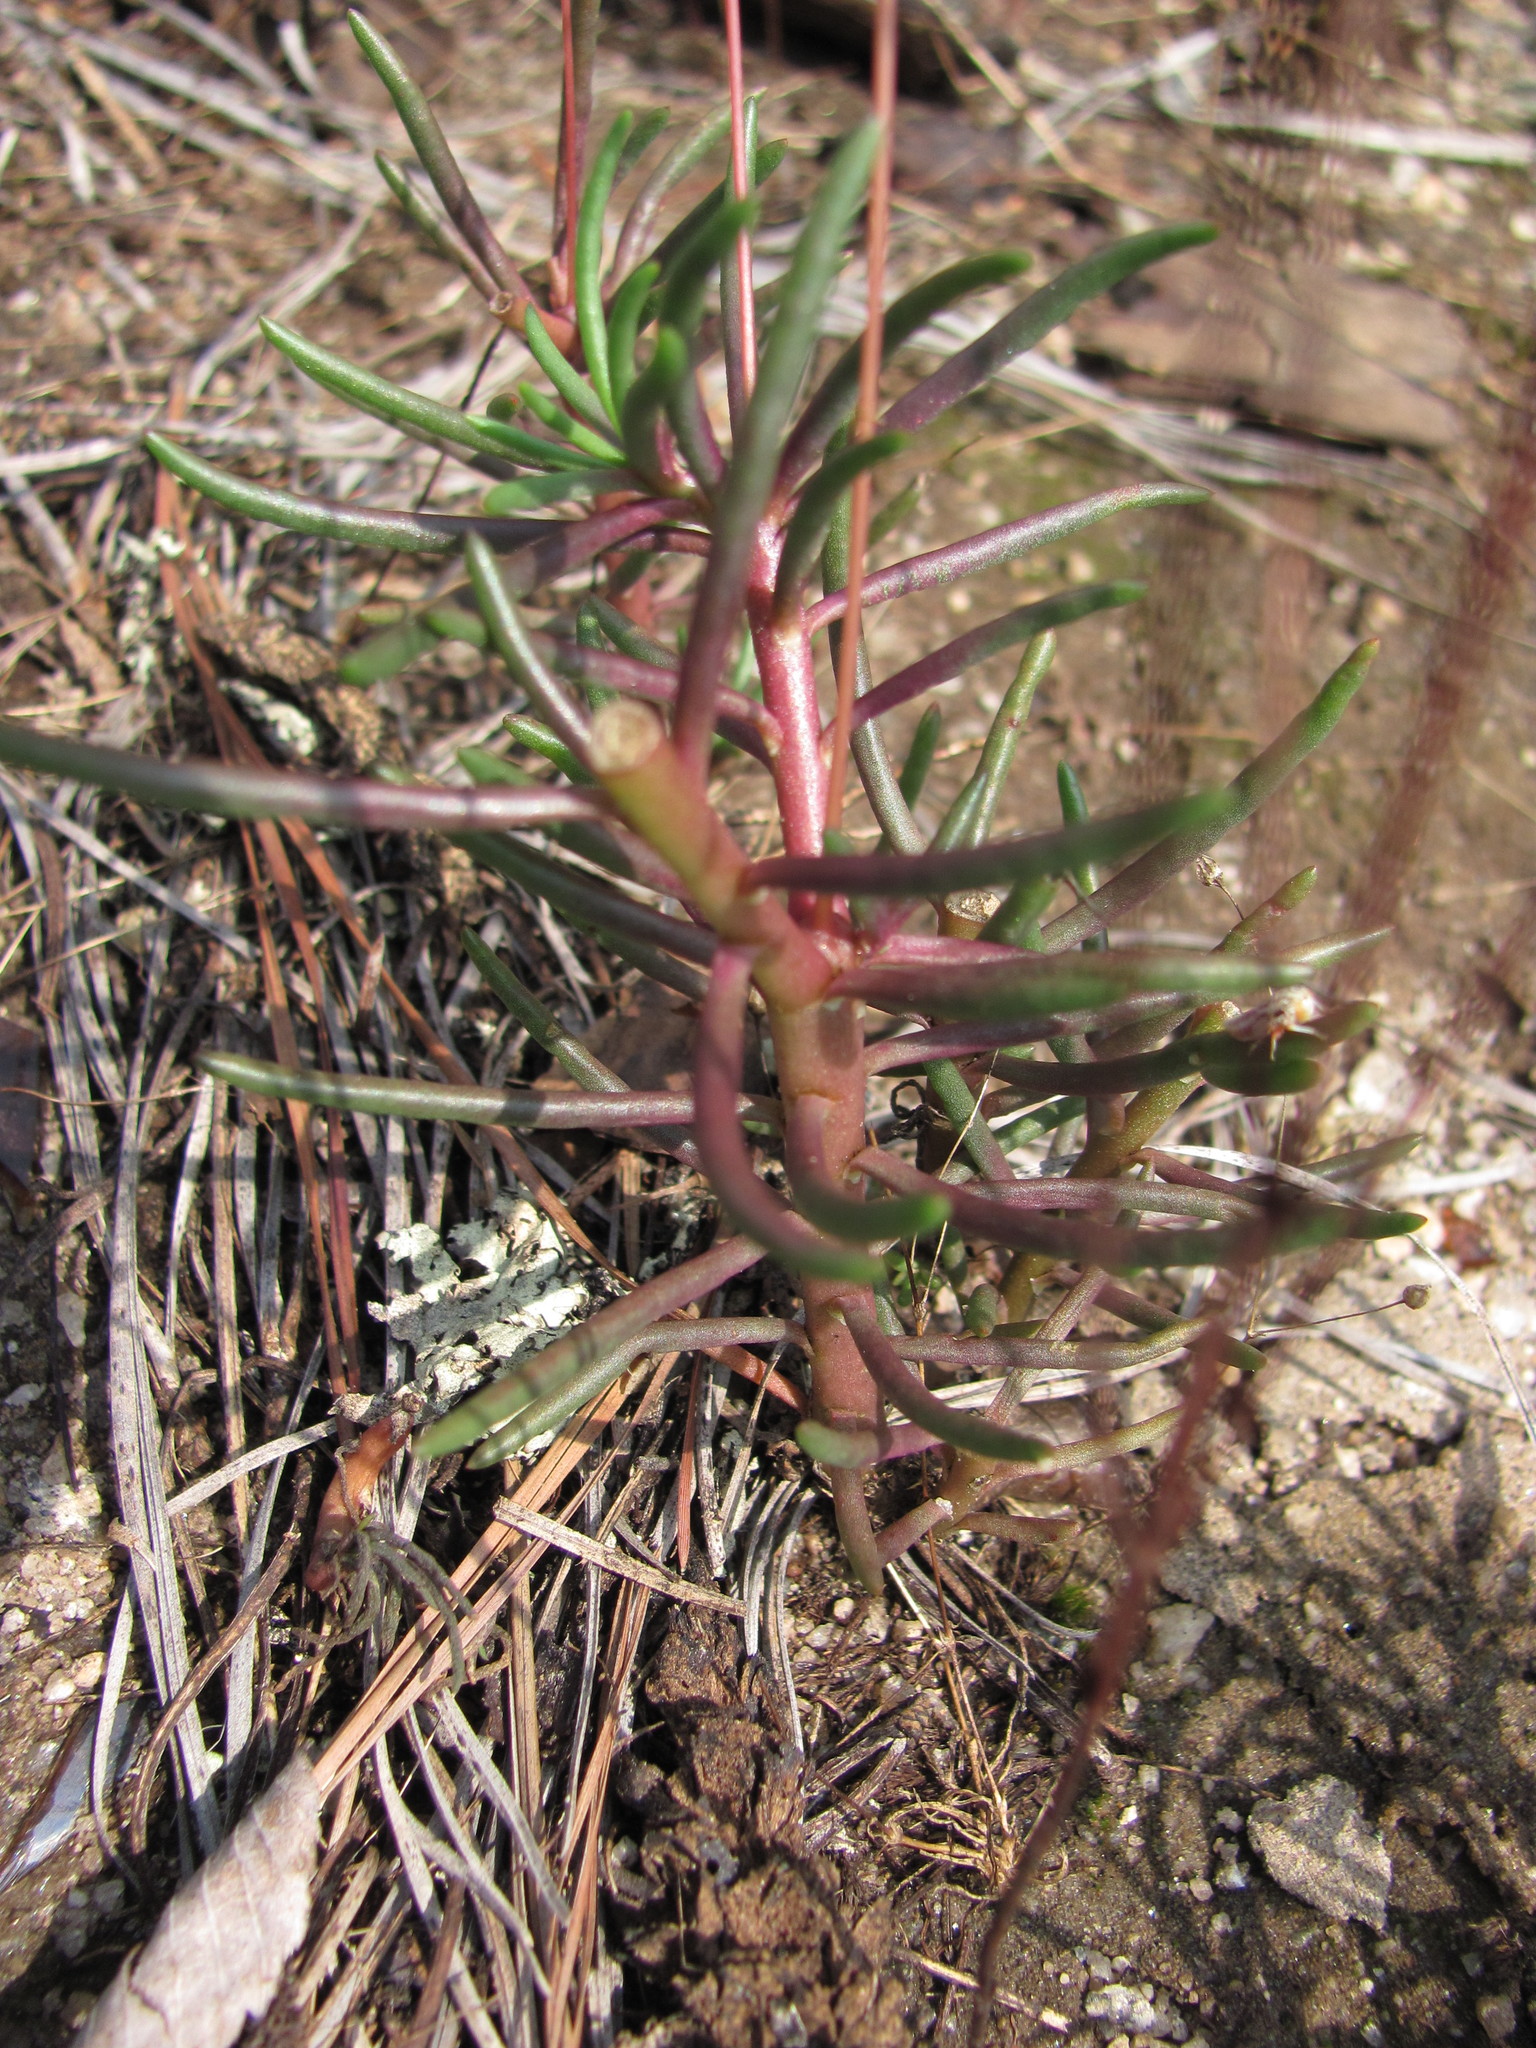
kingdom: Plantae
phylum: Tracheophyta
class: Magnoliopsida
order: Caryophyllales
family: Montiaceae
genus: Phemeranthus
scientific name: Phemeranthus mengesii
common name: Menges' fameflower
